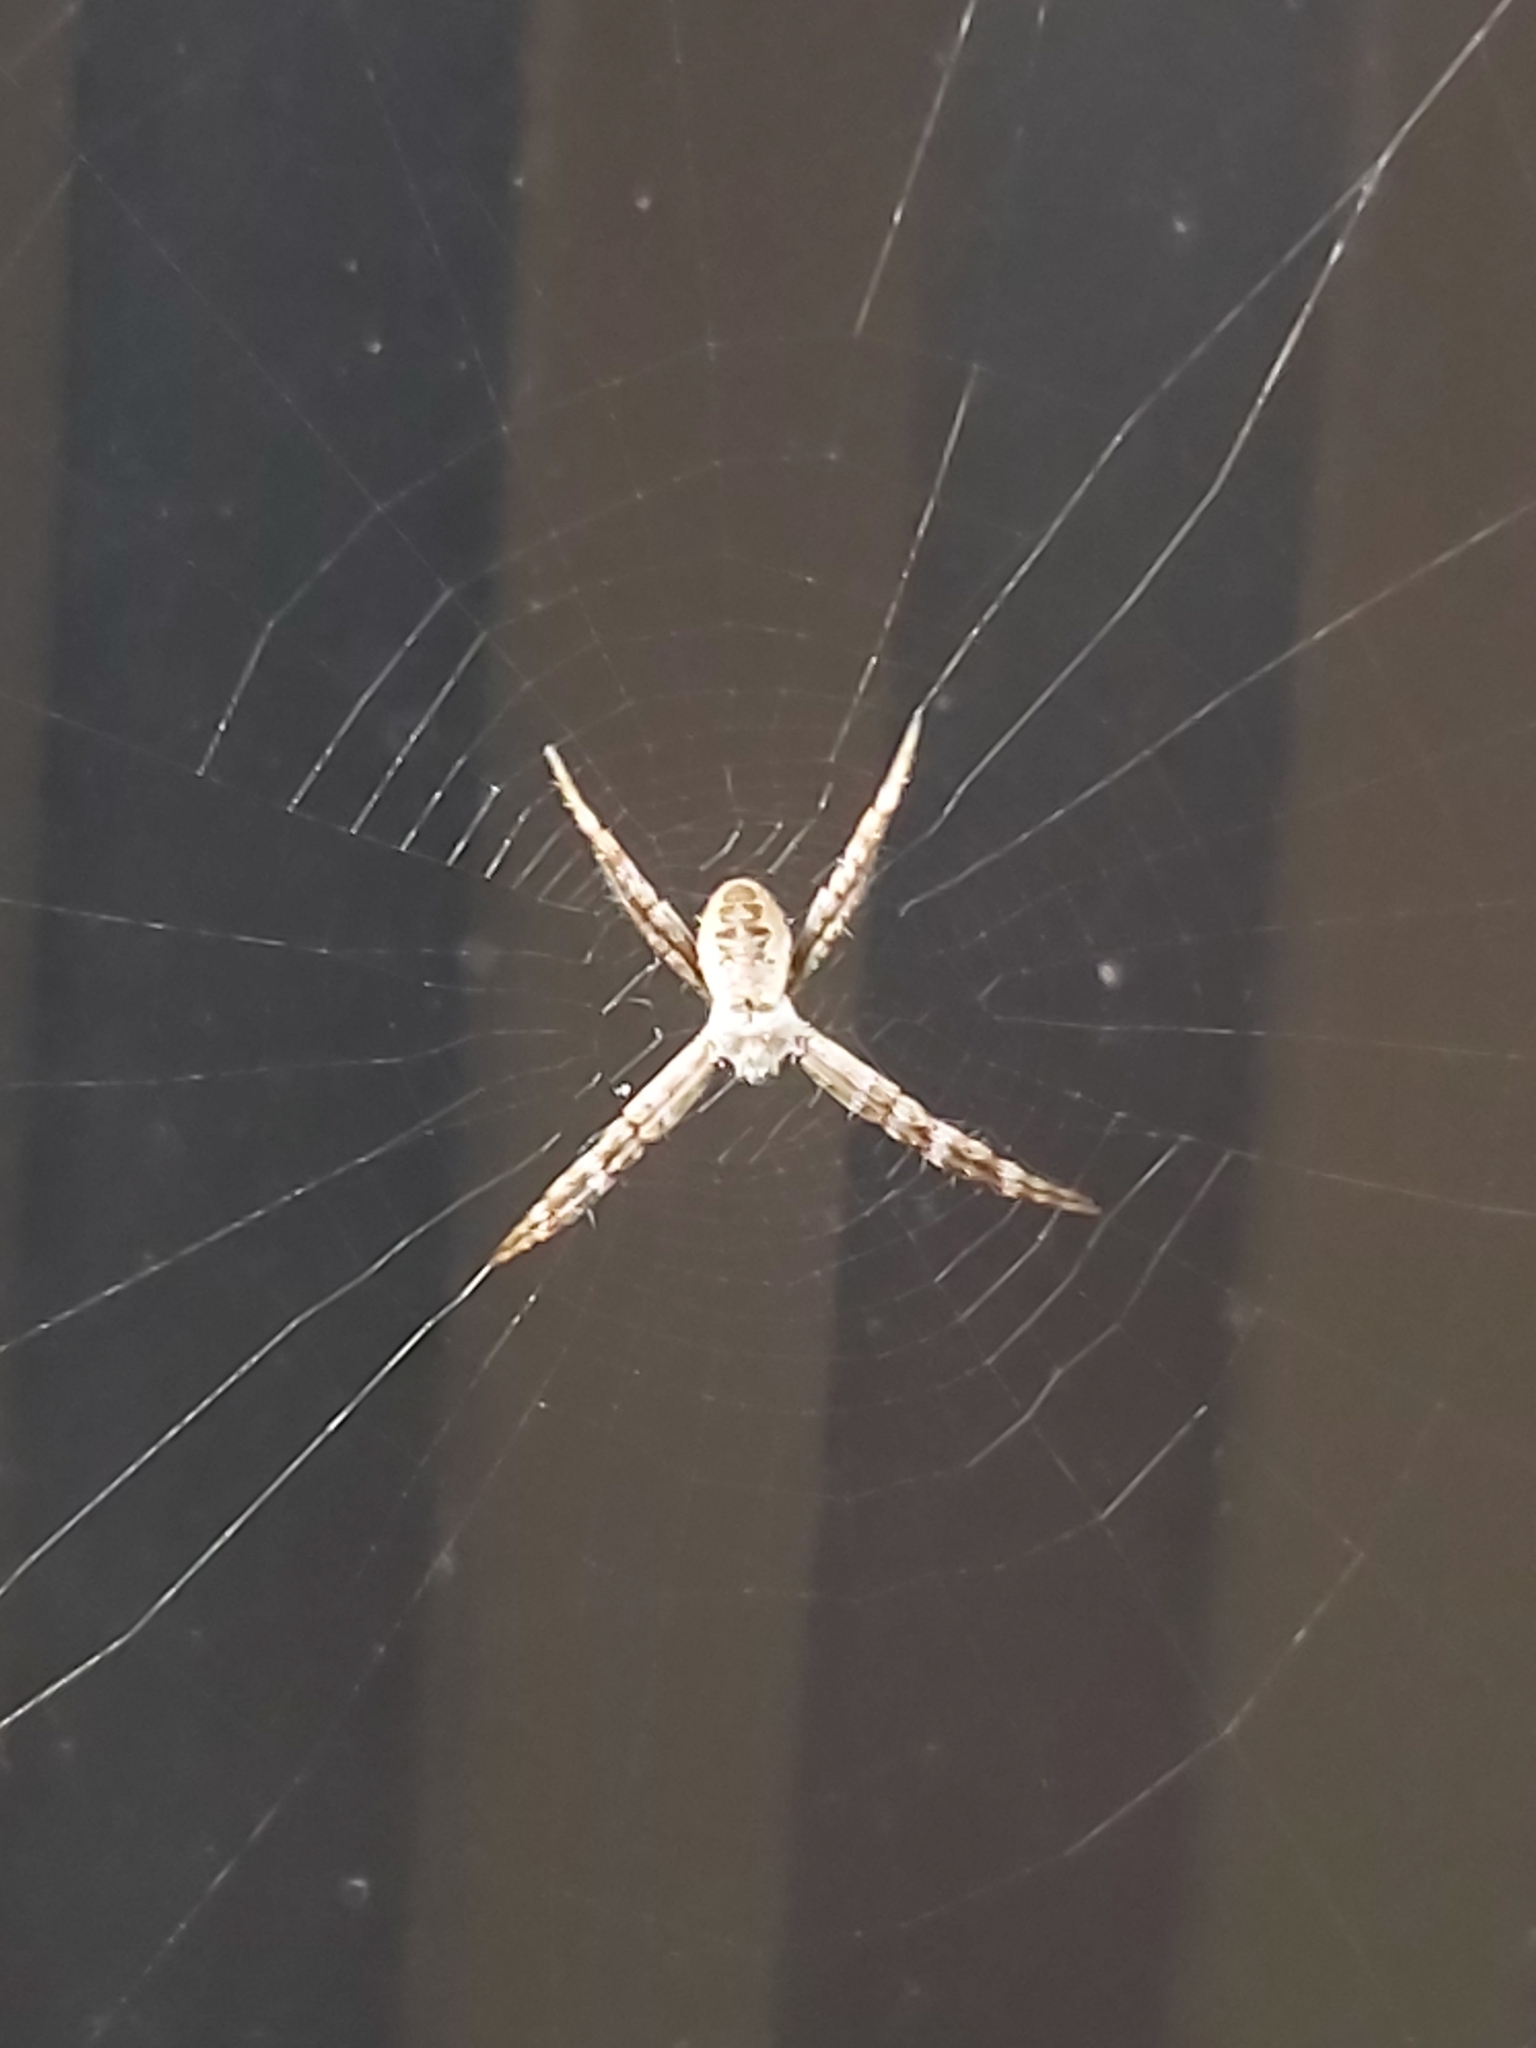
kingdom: Animalia
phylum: Arthropoda
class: Arachnida
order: Araneae
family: Araneidae
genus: Argiope
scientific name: Argiope keyserlingi
